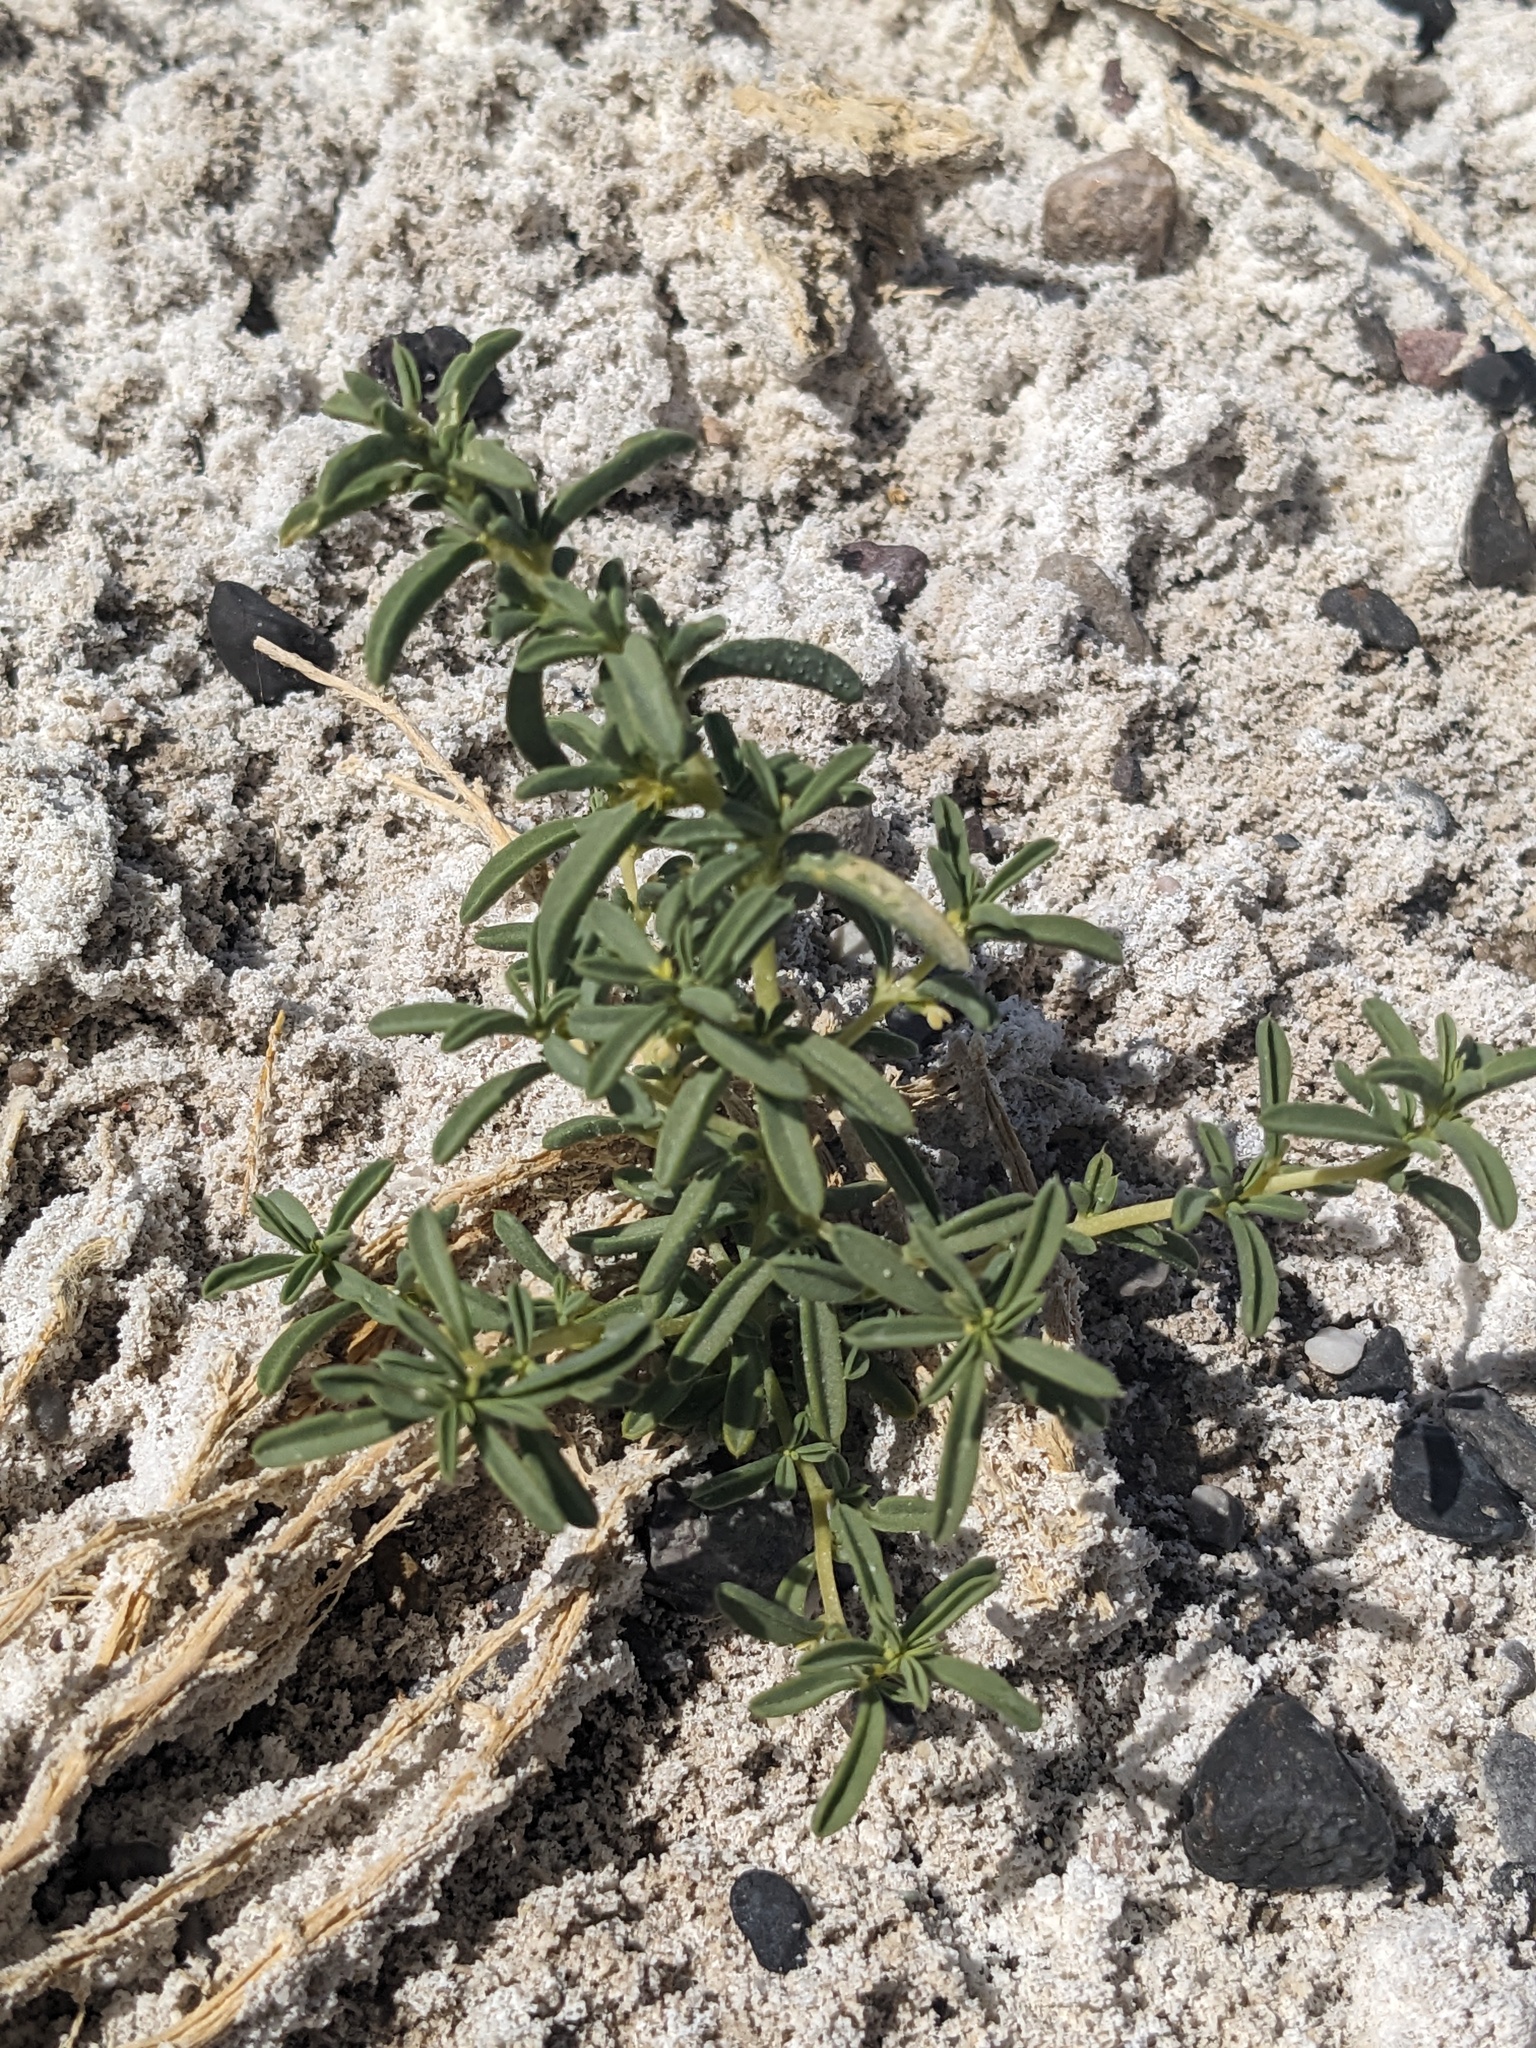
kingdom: Plantae
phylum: Tracheophyta
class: Magnoliopsida
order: Brassicales
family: Cleomaceae
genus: Cleomella
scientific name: Cleomella brevipes
